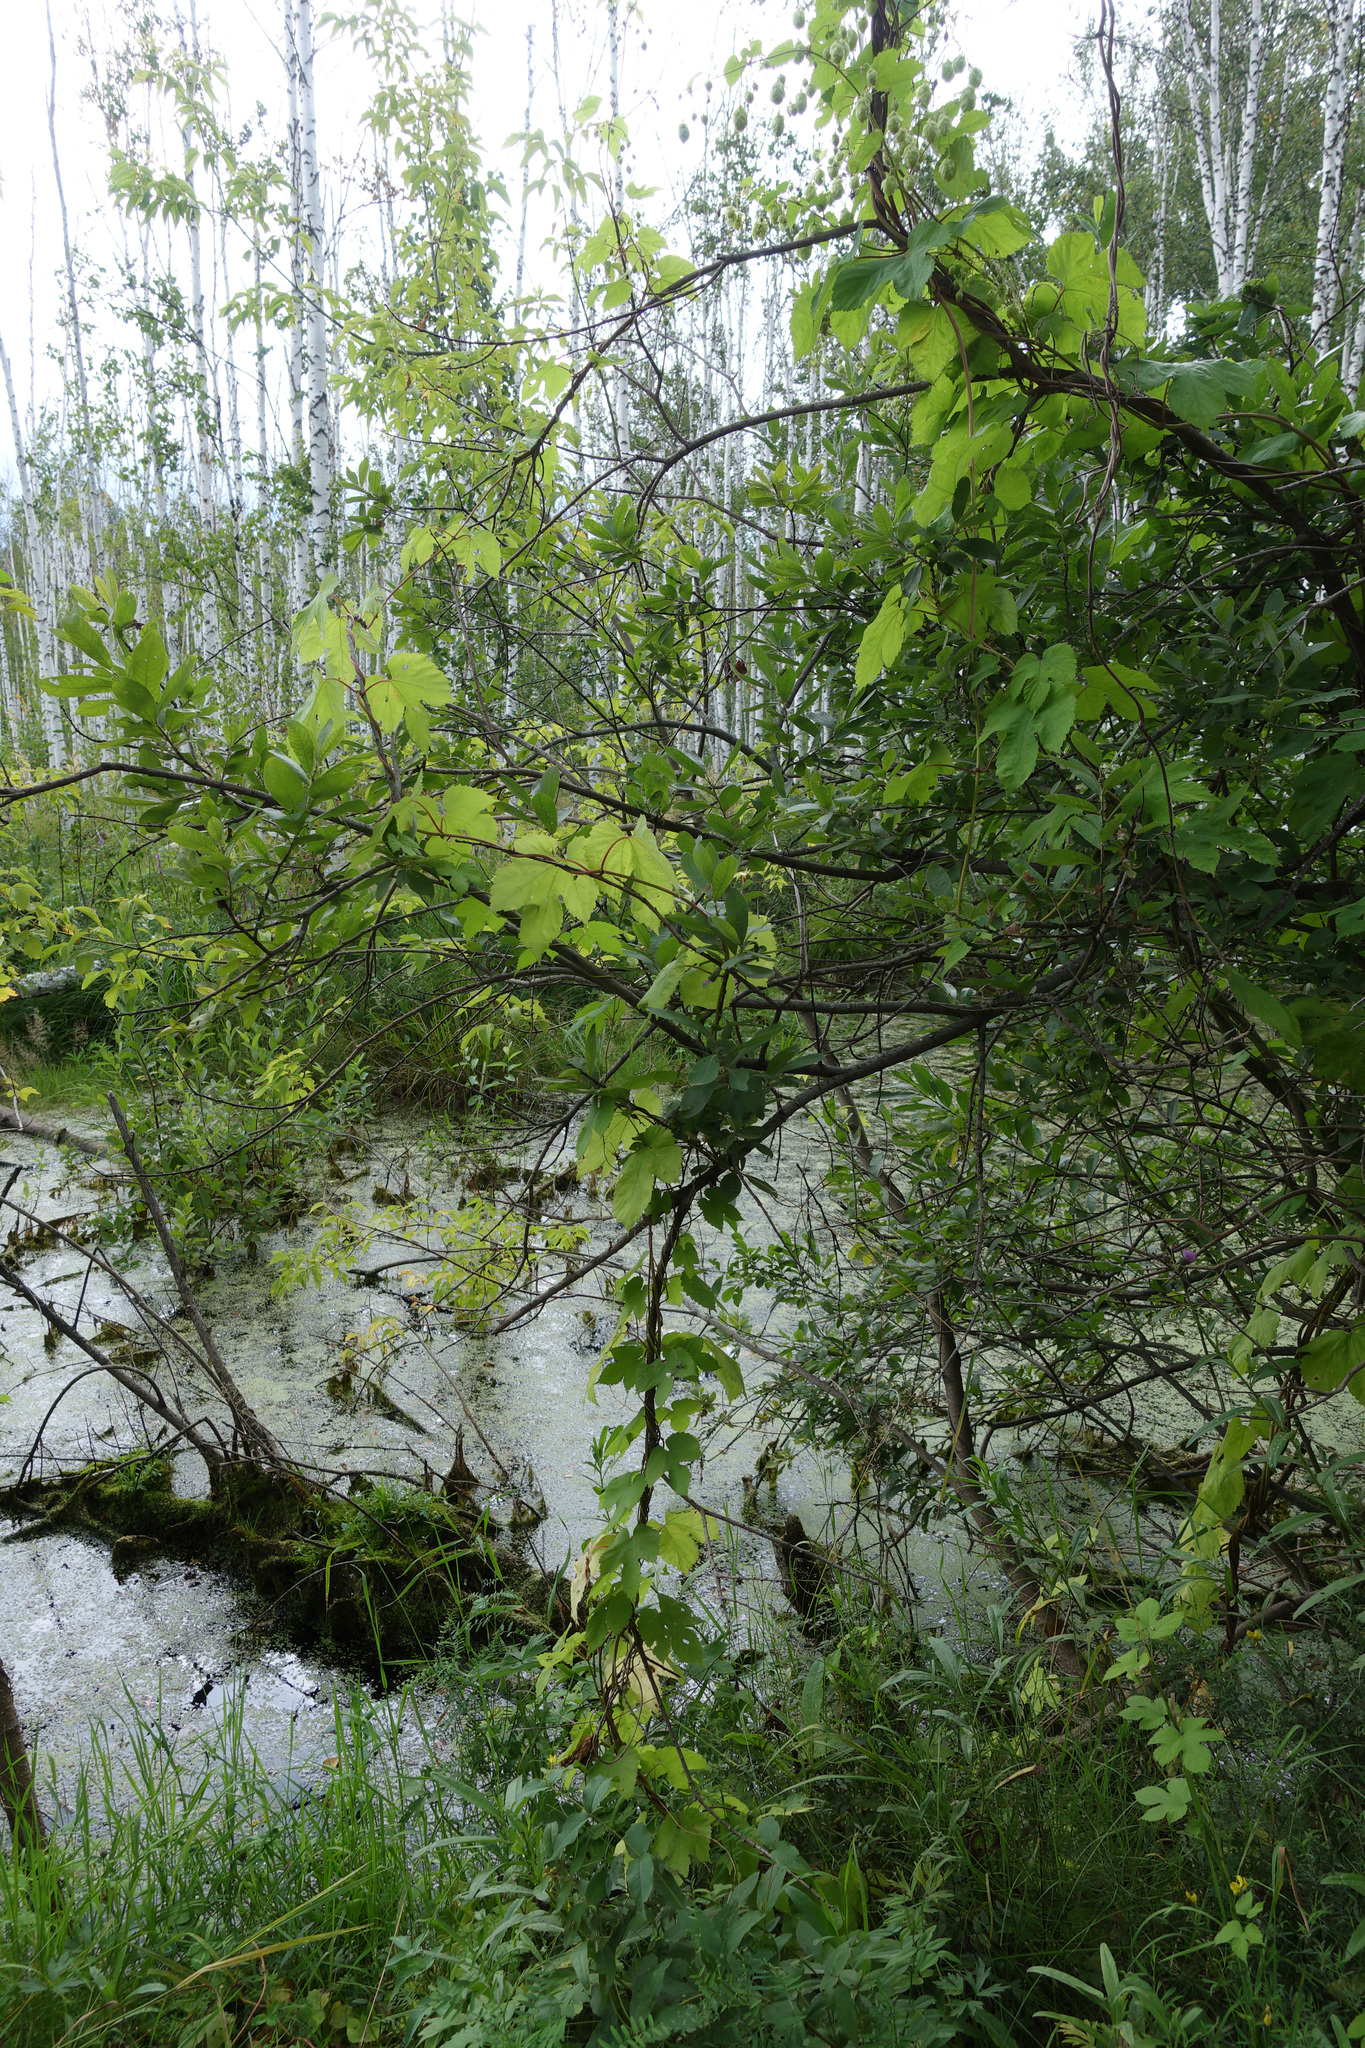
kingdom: Plantae
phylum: Tracheophyta
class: Magnoliopsida
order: Rosales
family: Cannabaceae
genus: Humulus
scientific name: Humulus lupulus
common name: Hop
